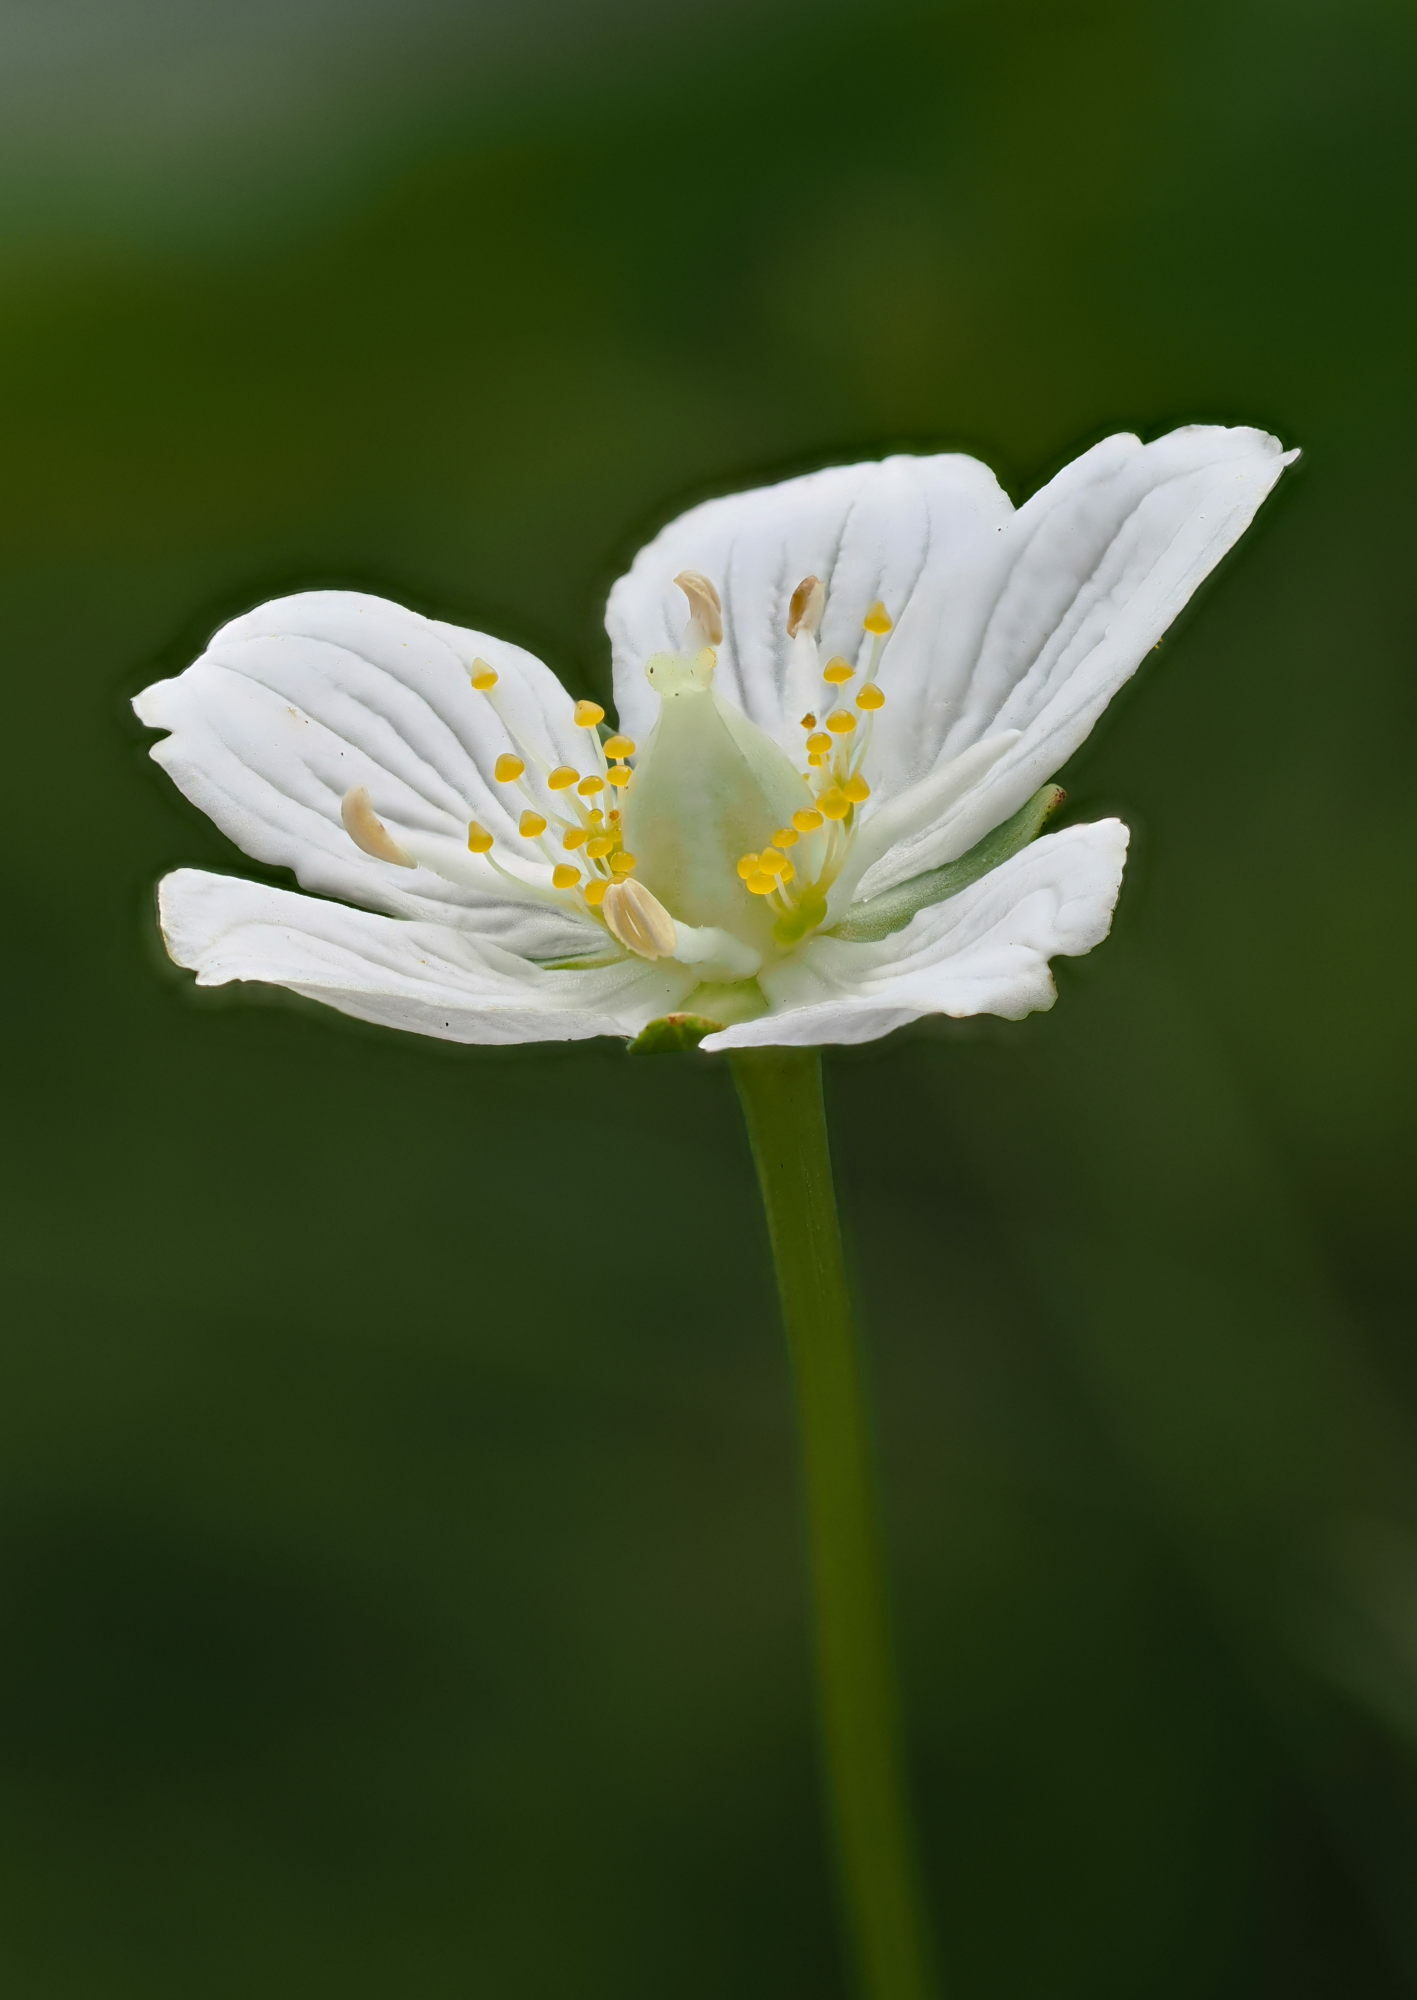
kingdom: Plantae
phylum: Tracheophyta
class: Magnoliopsida
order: Celastrales
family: Parnassiaceae
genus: Parnassia
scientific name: Parnassia palustris
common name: Grass-of-parnassus
